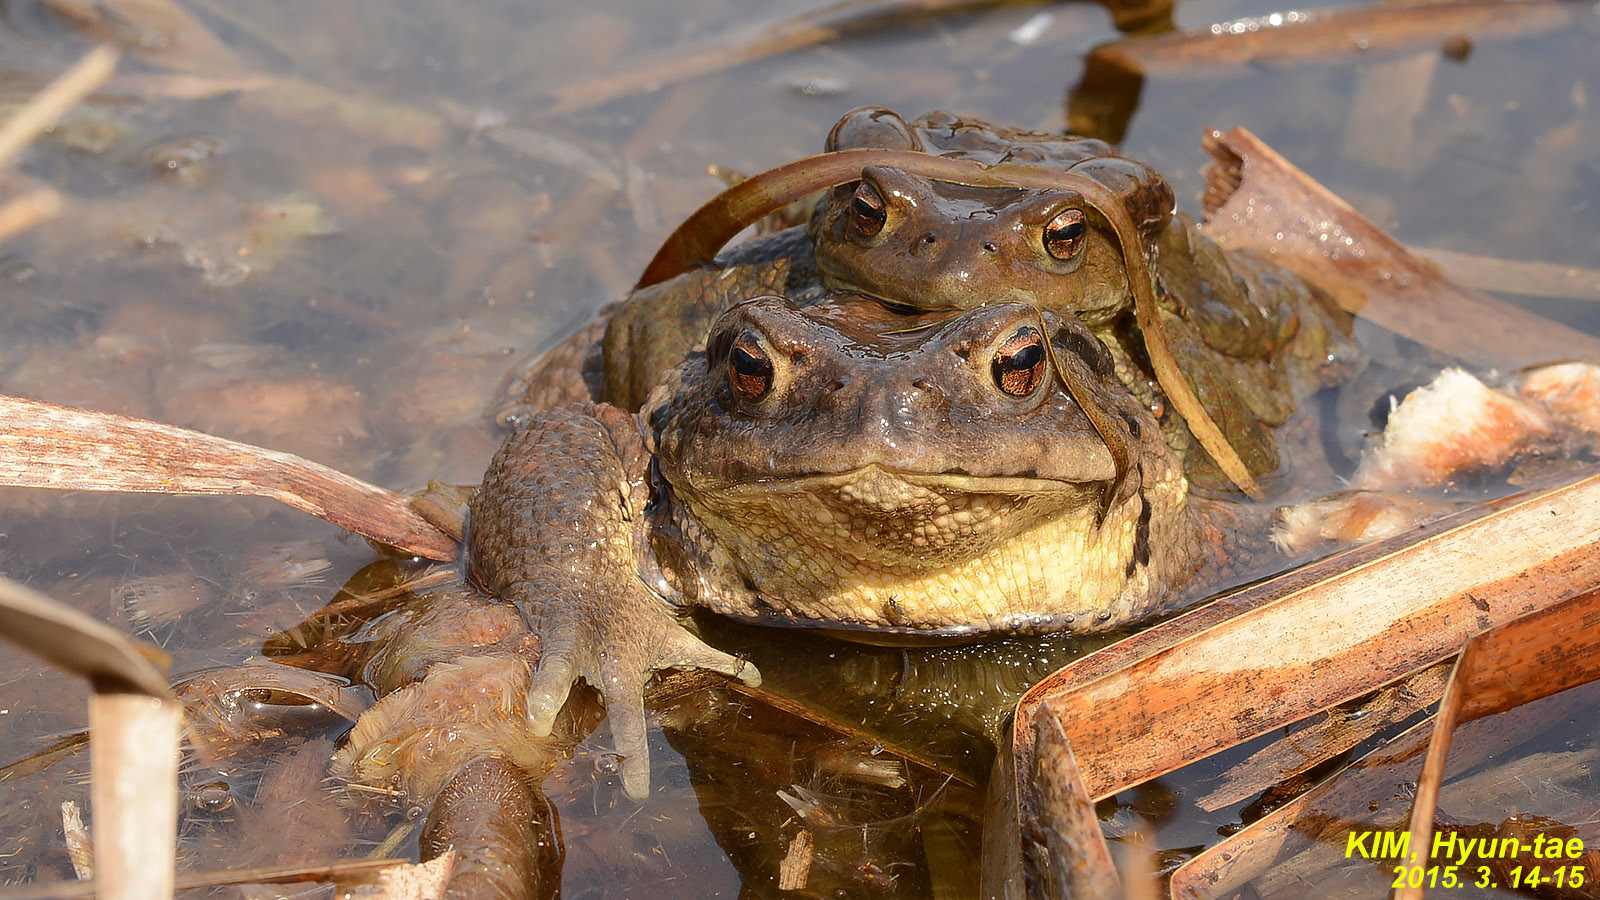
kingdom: Animalia
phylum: Chordata
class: Amphibia
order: Anura
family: Bufonidae
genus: Bufo
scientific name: Bufo gargarizans
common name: Asiatic toad
